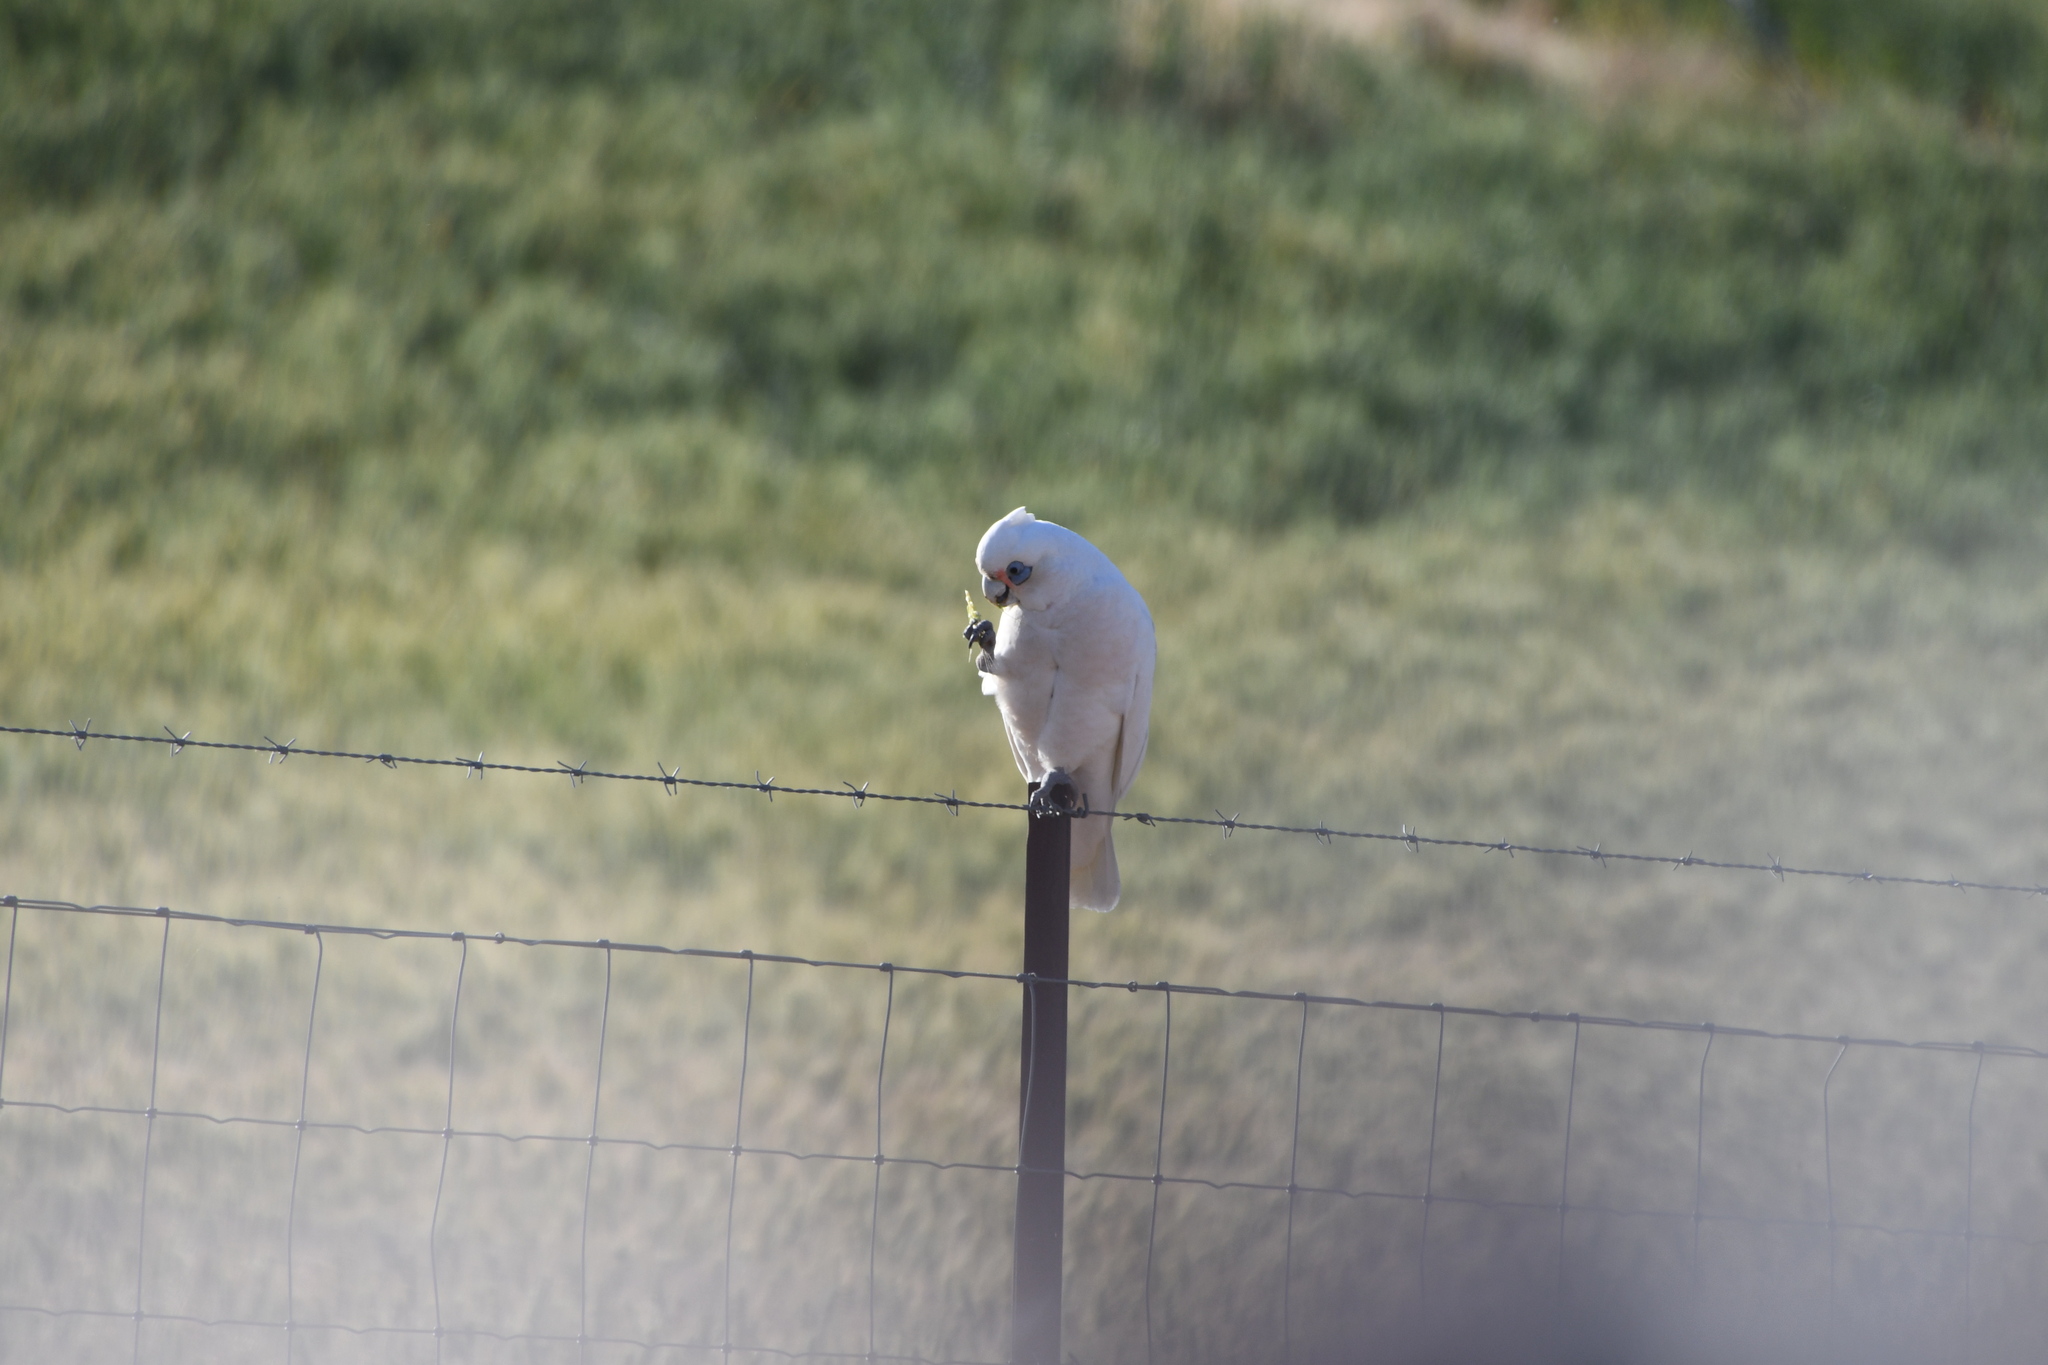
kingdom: Animalia
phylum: Chordata
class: Aves
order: Psittaciformes
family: Psittacidae
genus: Cacatua
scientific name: Cacatua sanguinea
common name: Little corella
